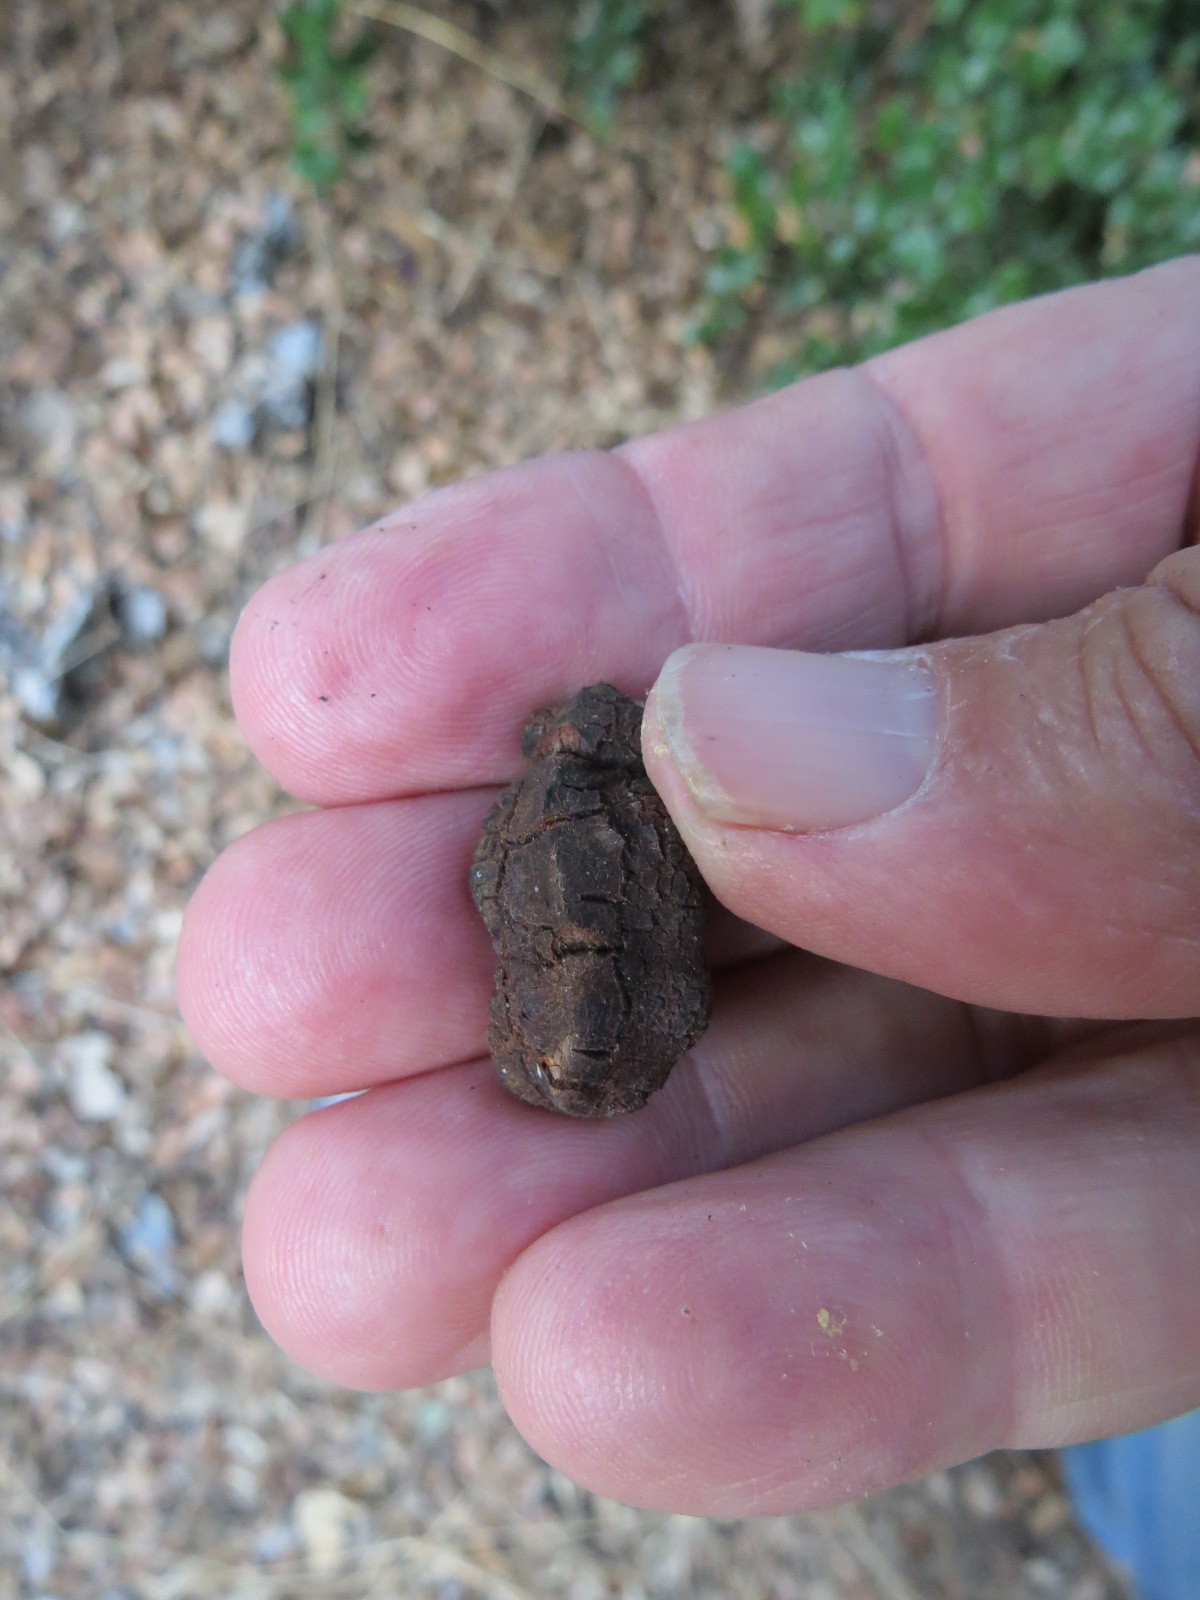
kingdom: Animalia
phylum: Arthropoda
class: Insecta
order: Hymenoptera
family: Cynipidae
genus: Disholandricus
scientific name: Disholandricus
